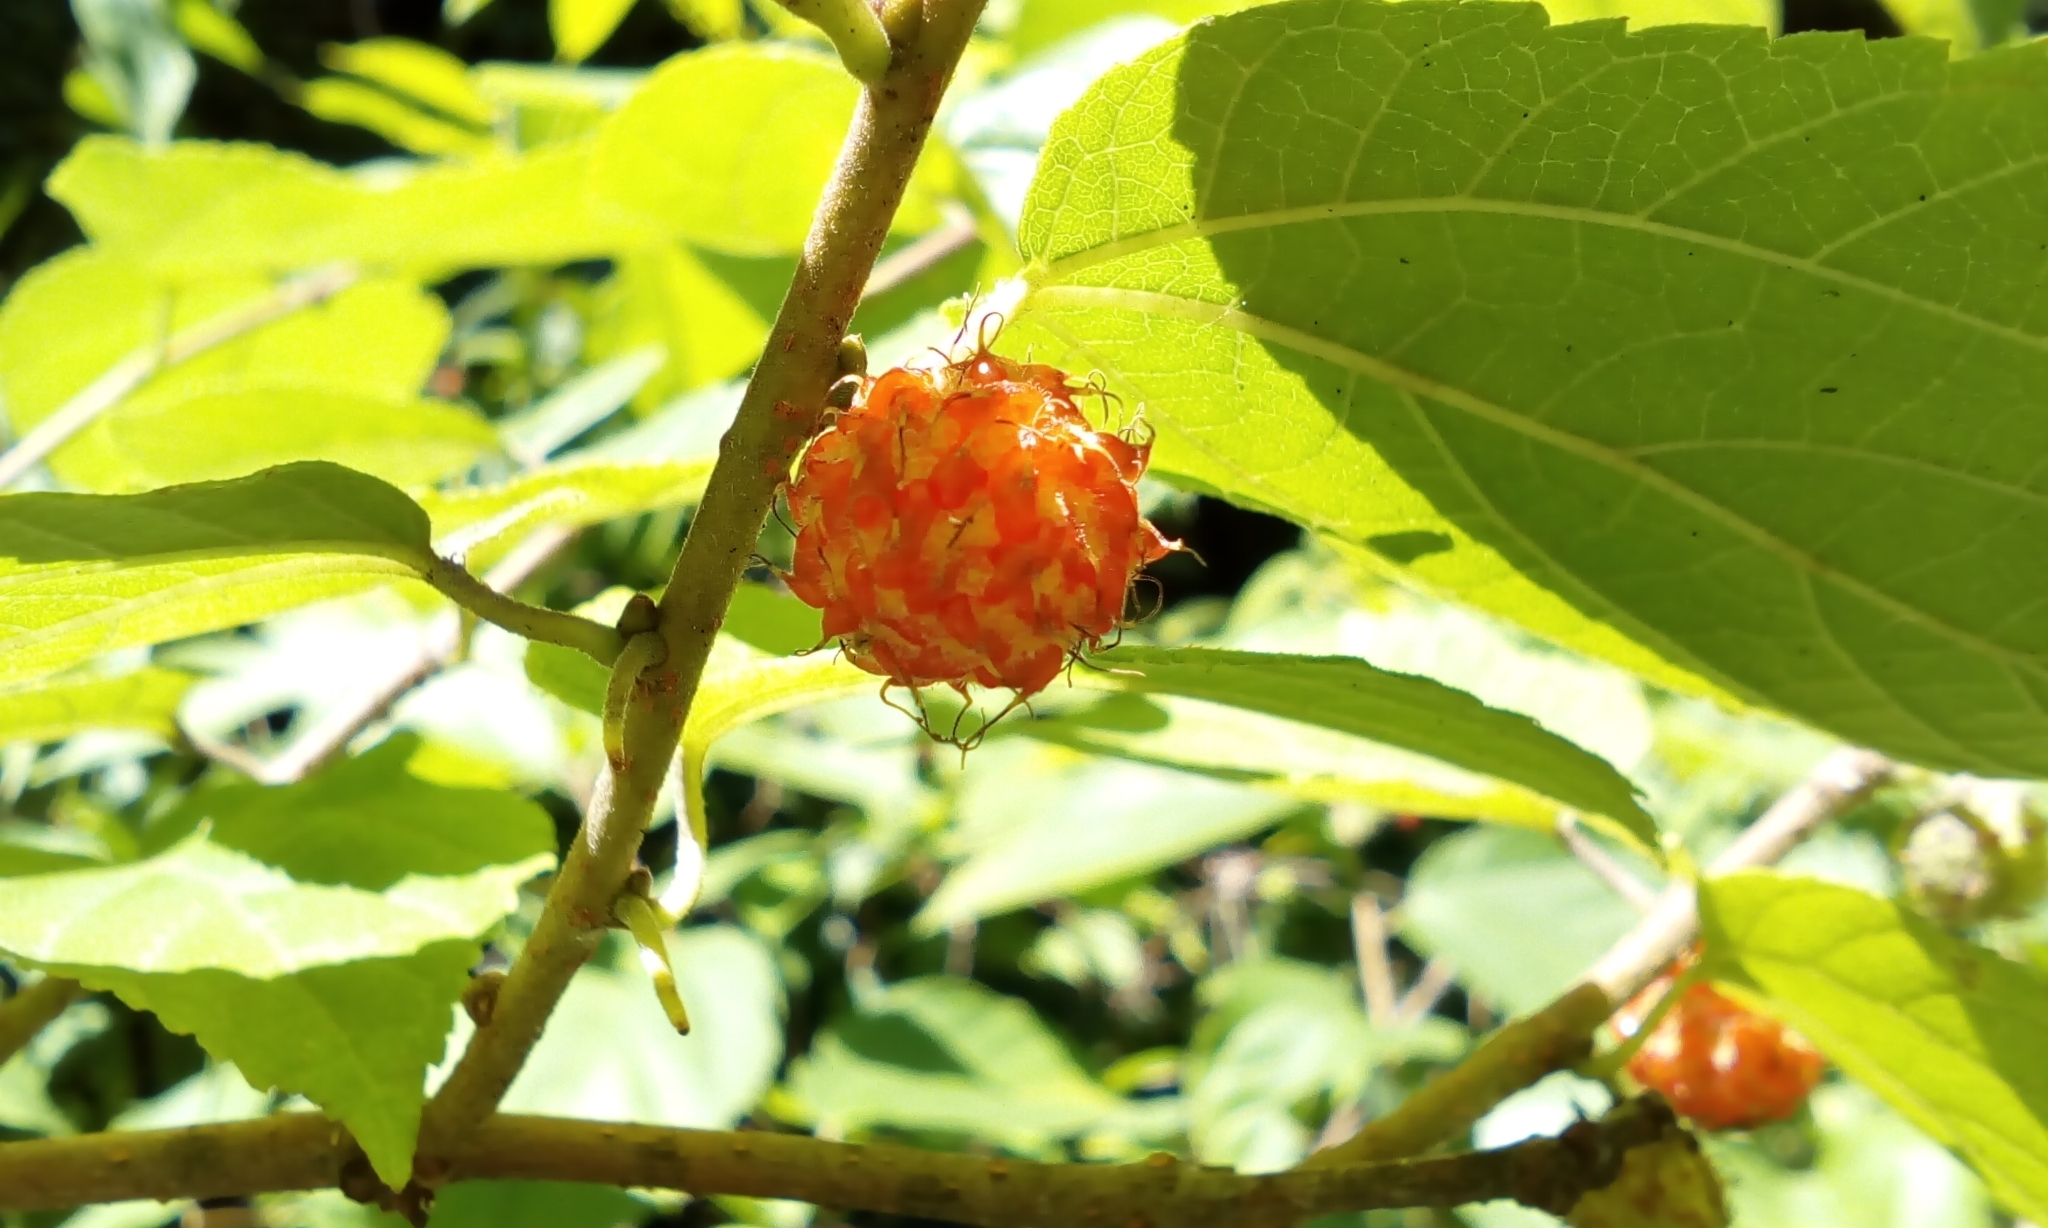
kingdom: Plantae
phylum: Tracheophyta
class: Magnoliopsida
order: Rosales
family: Moraceae
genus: Broussonetia
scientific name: Broussonetia kazinoki
